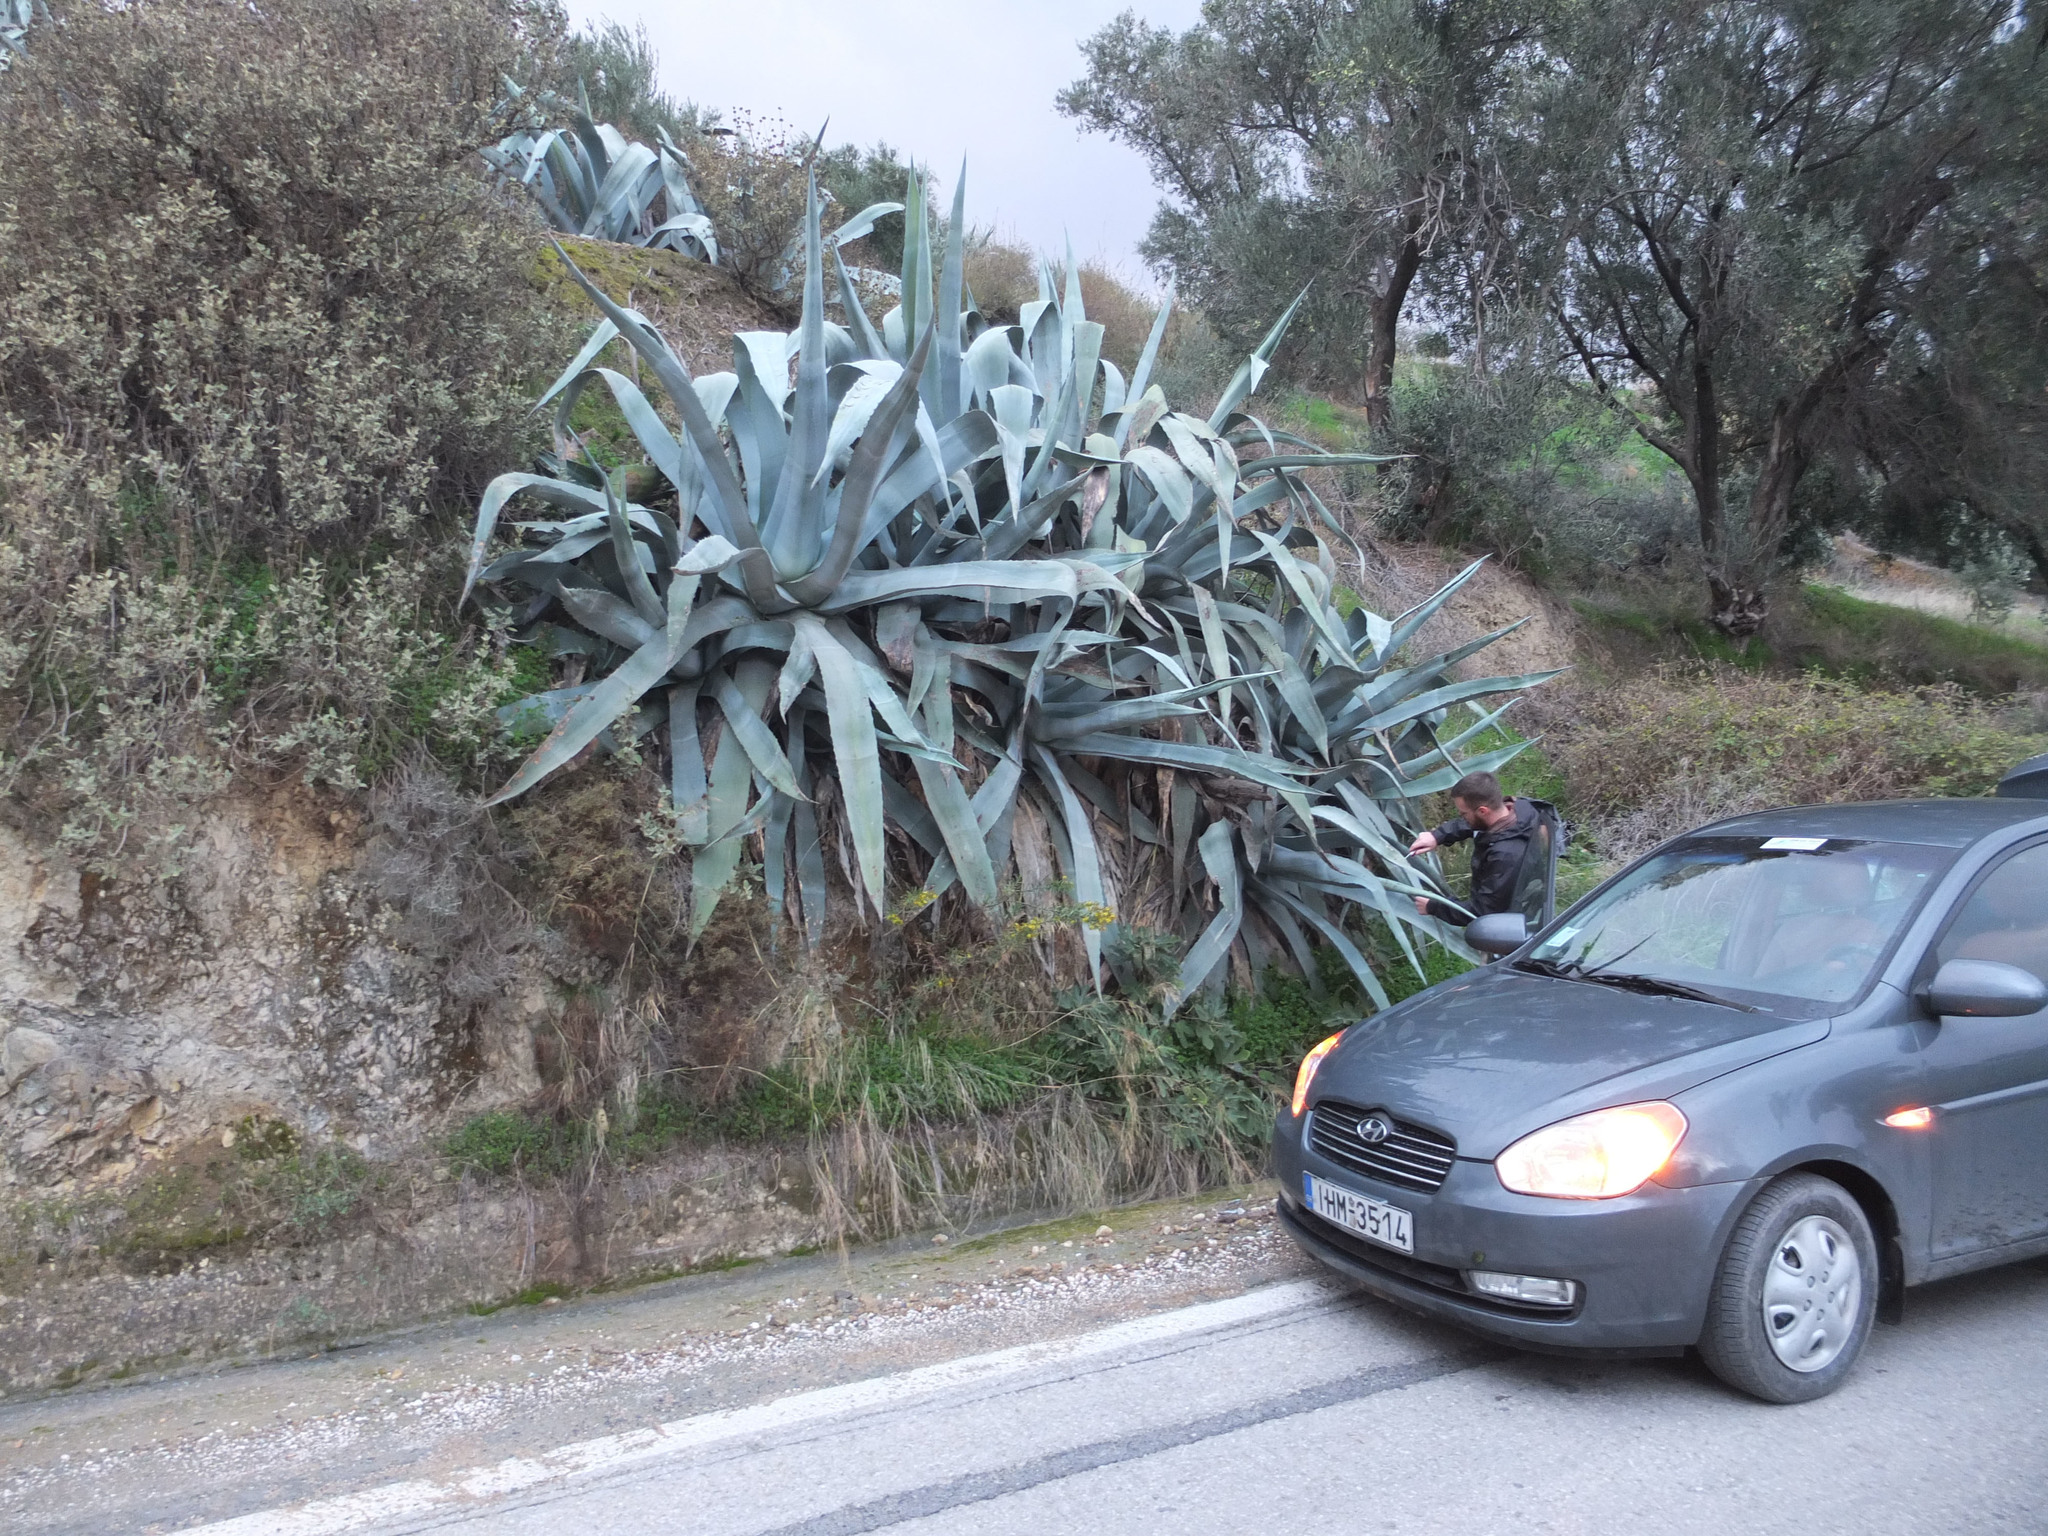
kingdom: Plantae
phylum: Tracheophyta
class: Liliopsida
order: Asparagales
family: Asparagaceae
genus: Agave
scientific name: Agave americana
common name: Centuryplant
